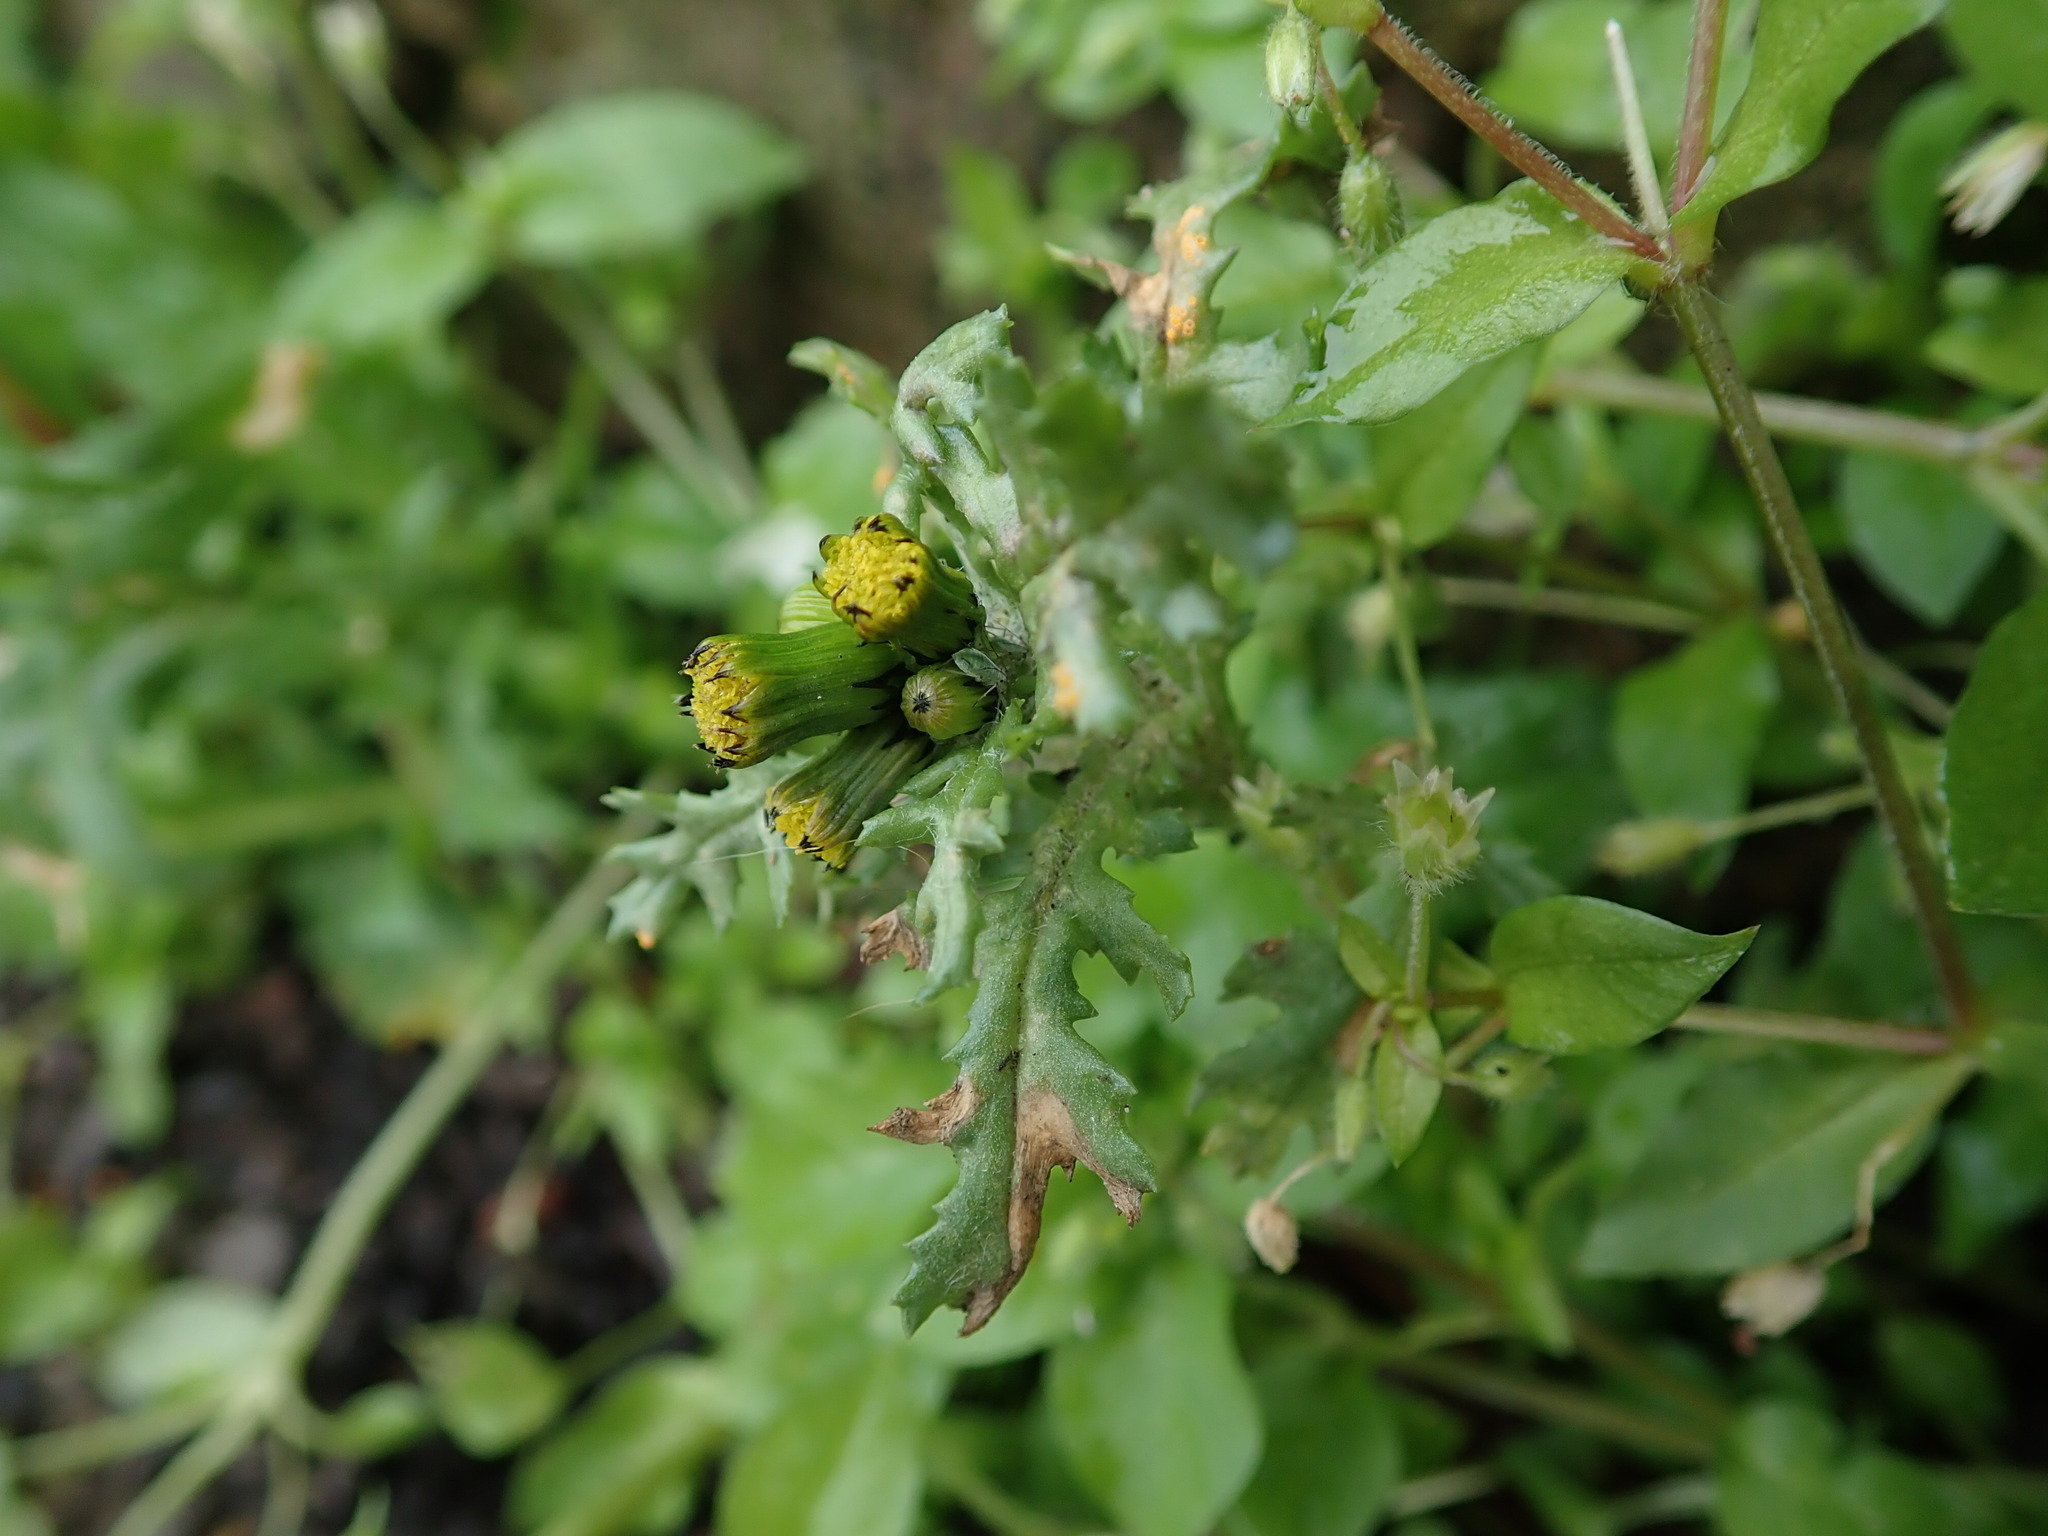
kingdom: Plantae
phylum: Tracheophyta
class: Magnoliopsida
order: Asterales
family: Asteraceae
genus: Senecio
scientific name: Senecio vulgaris
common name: Old-man-in-the-spring
